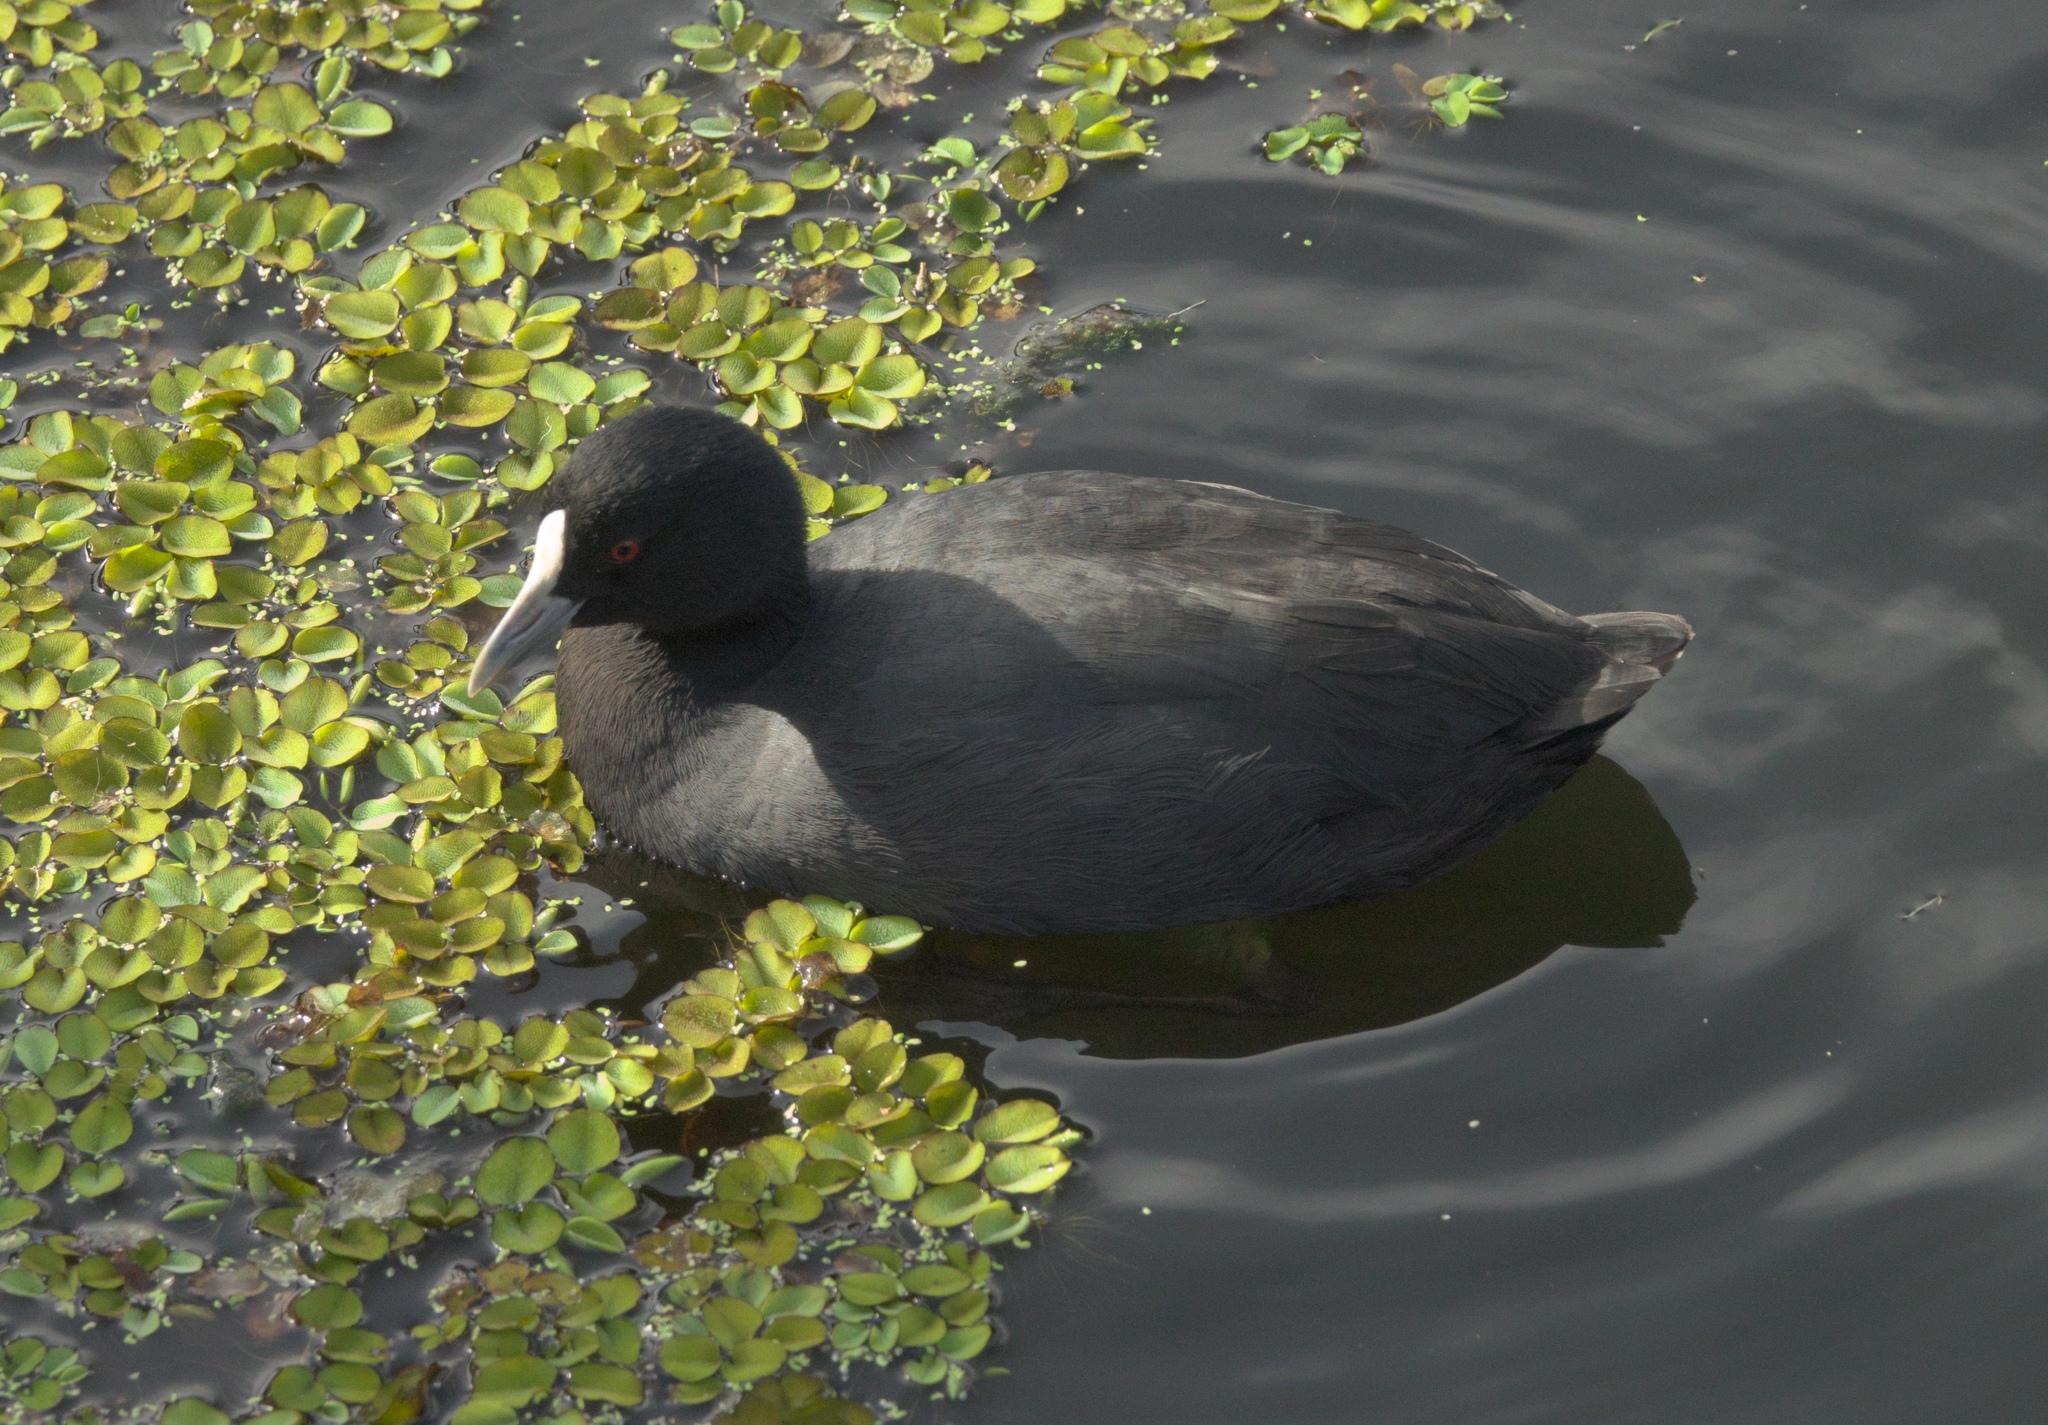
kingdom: Animalia
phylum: Chordata
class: Aves
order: Gruiformes
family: Rallidae
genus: Fulica
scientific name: Fulica atra
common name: Eurasian coot
